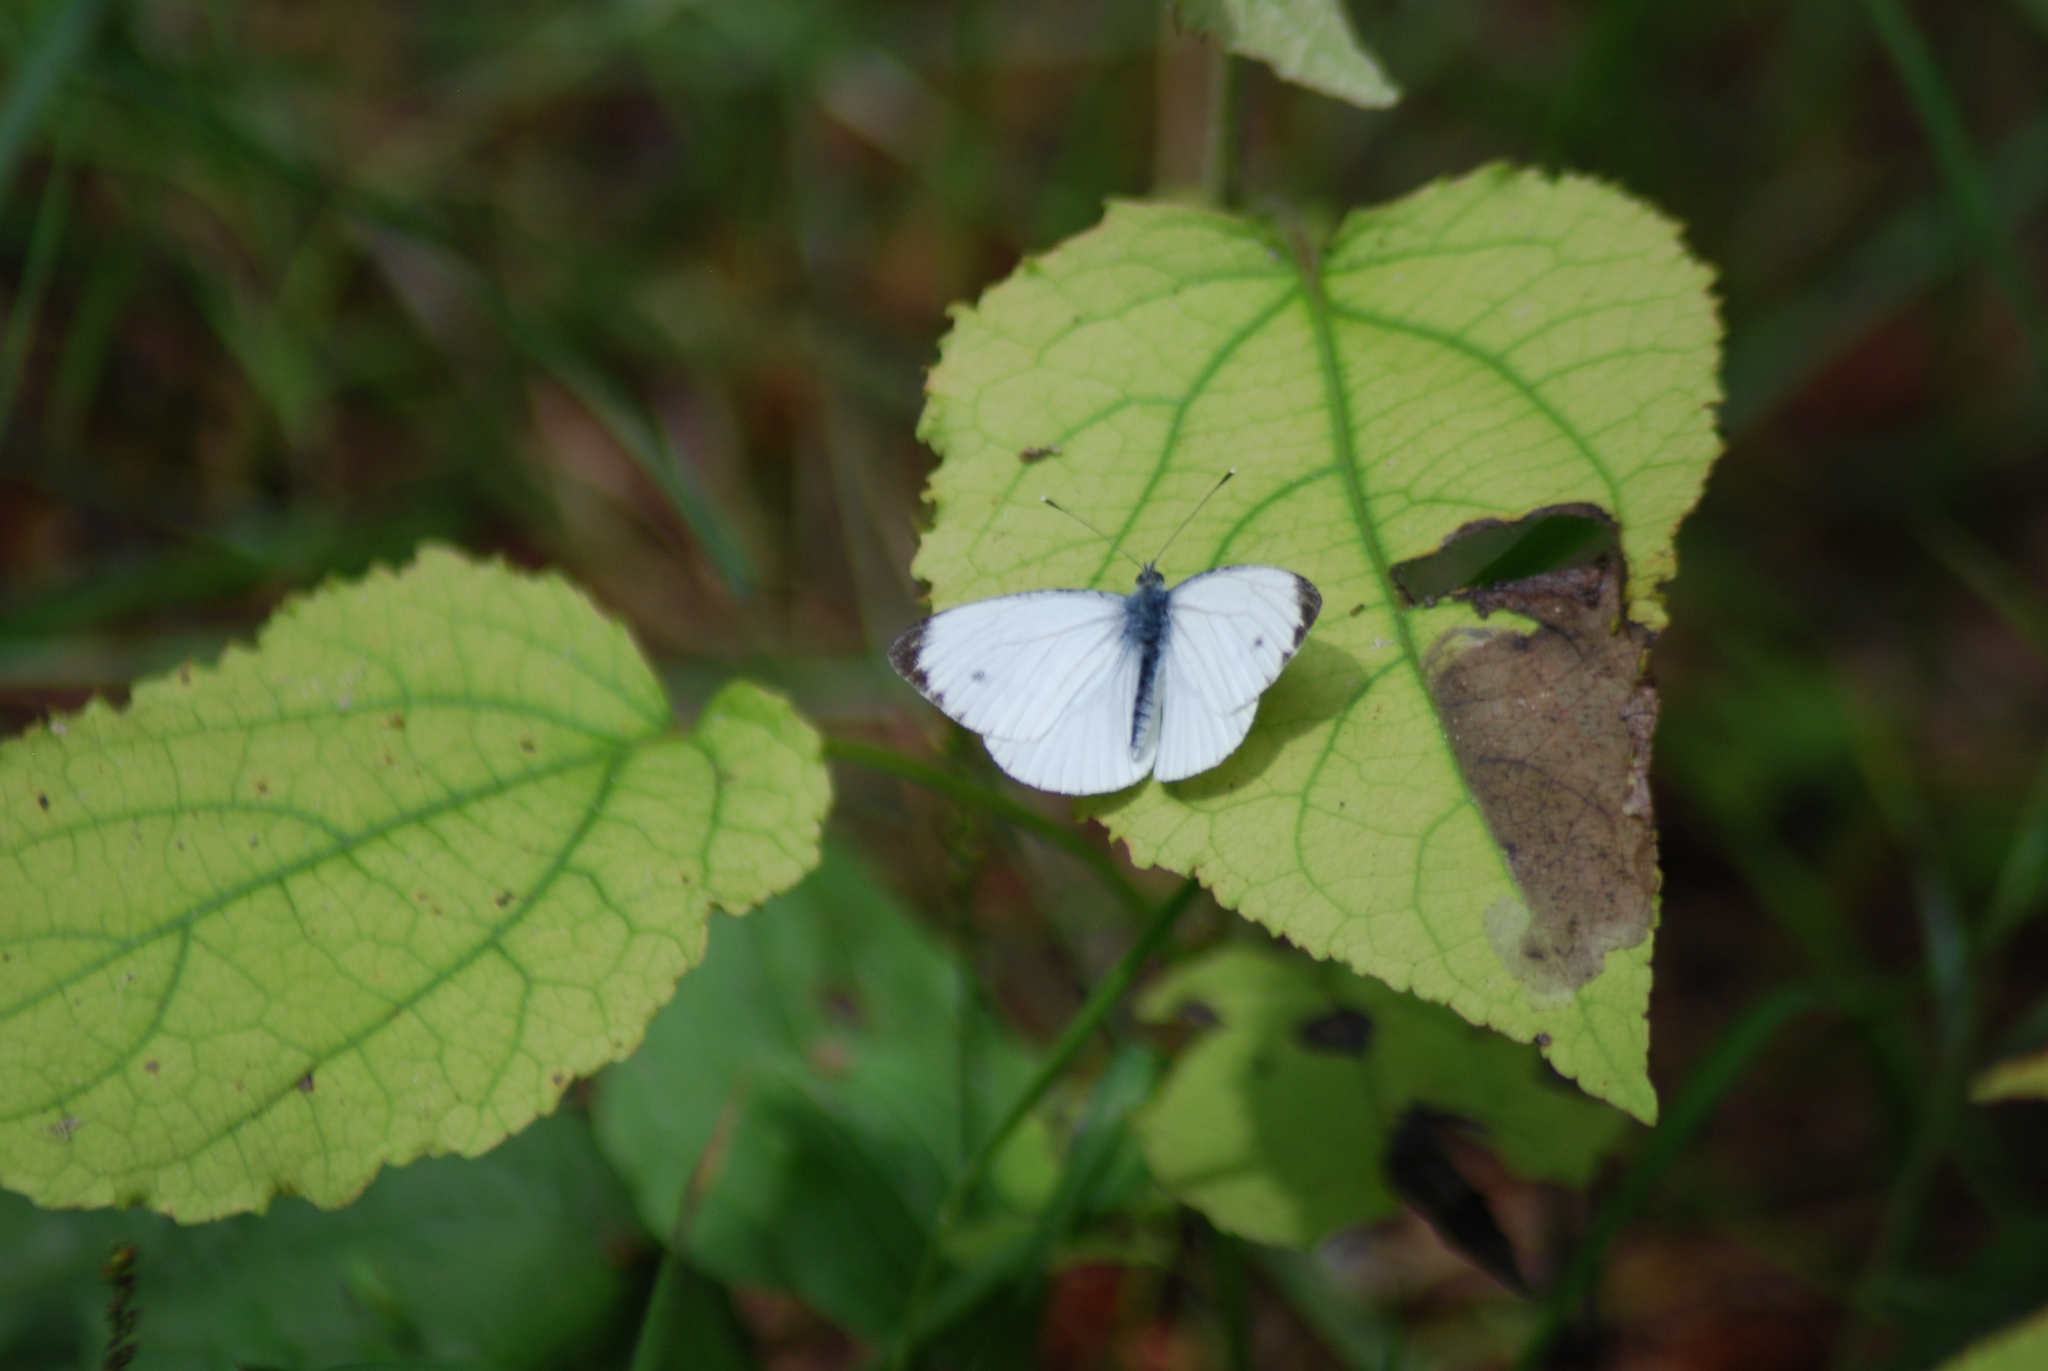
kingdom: Animalia
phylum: Arthropoda
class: Insecta
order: Lepidoptera
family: Pieridae
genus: Pieris
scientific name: Pieris napi
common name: Green-veined white
